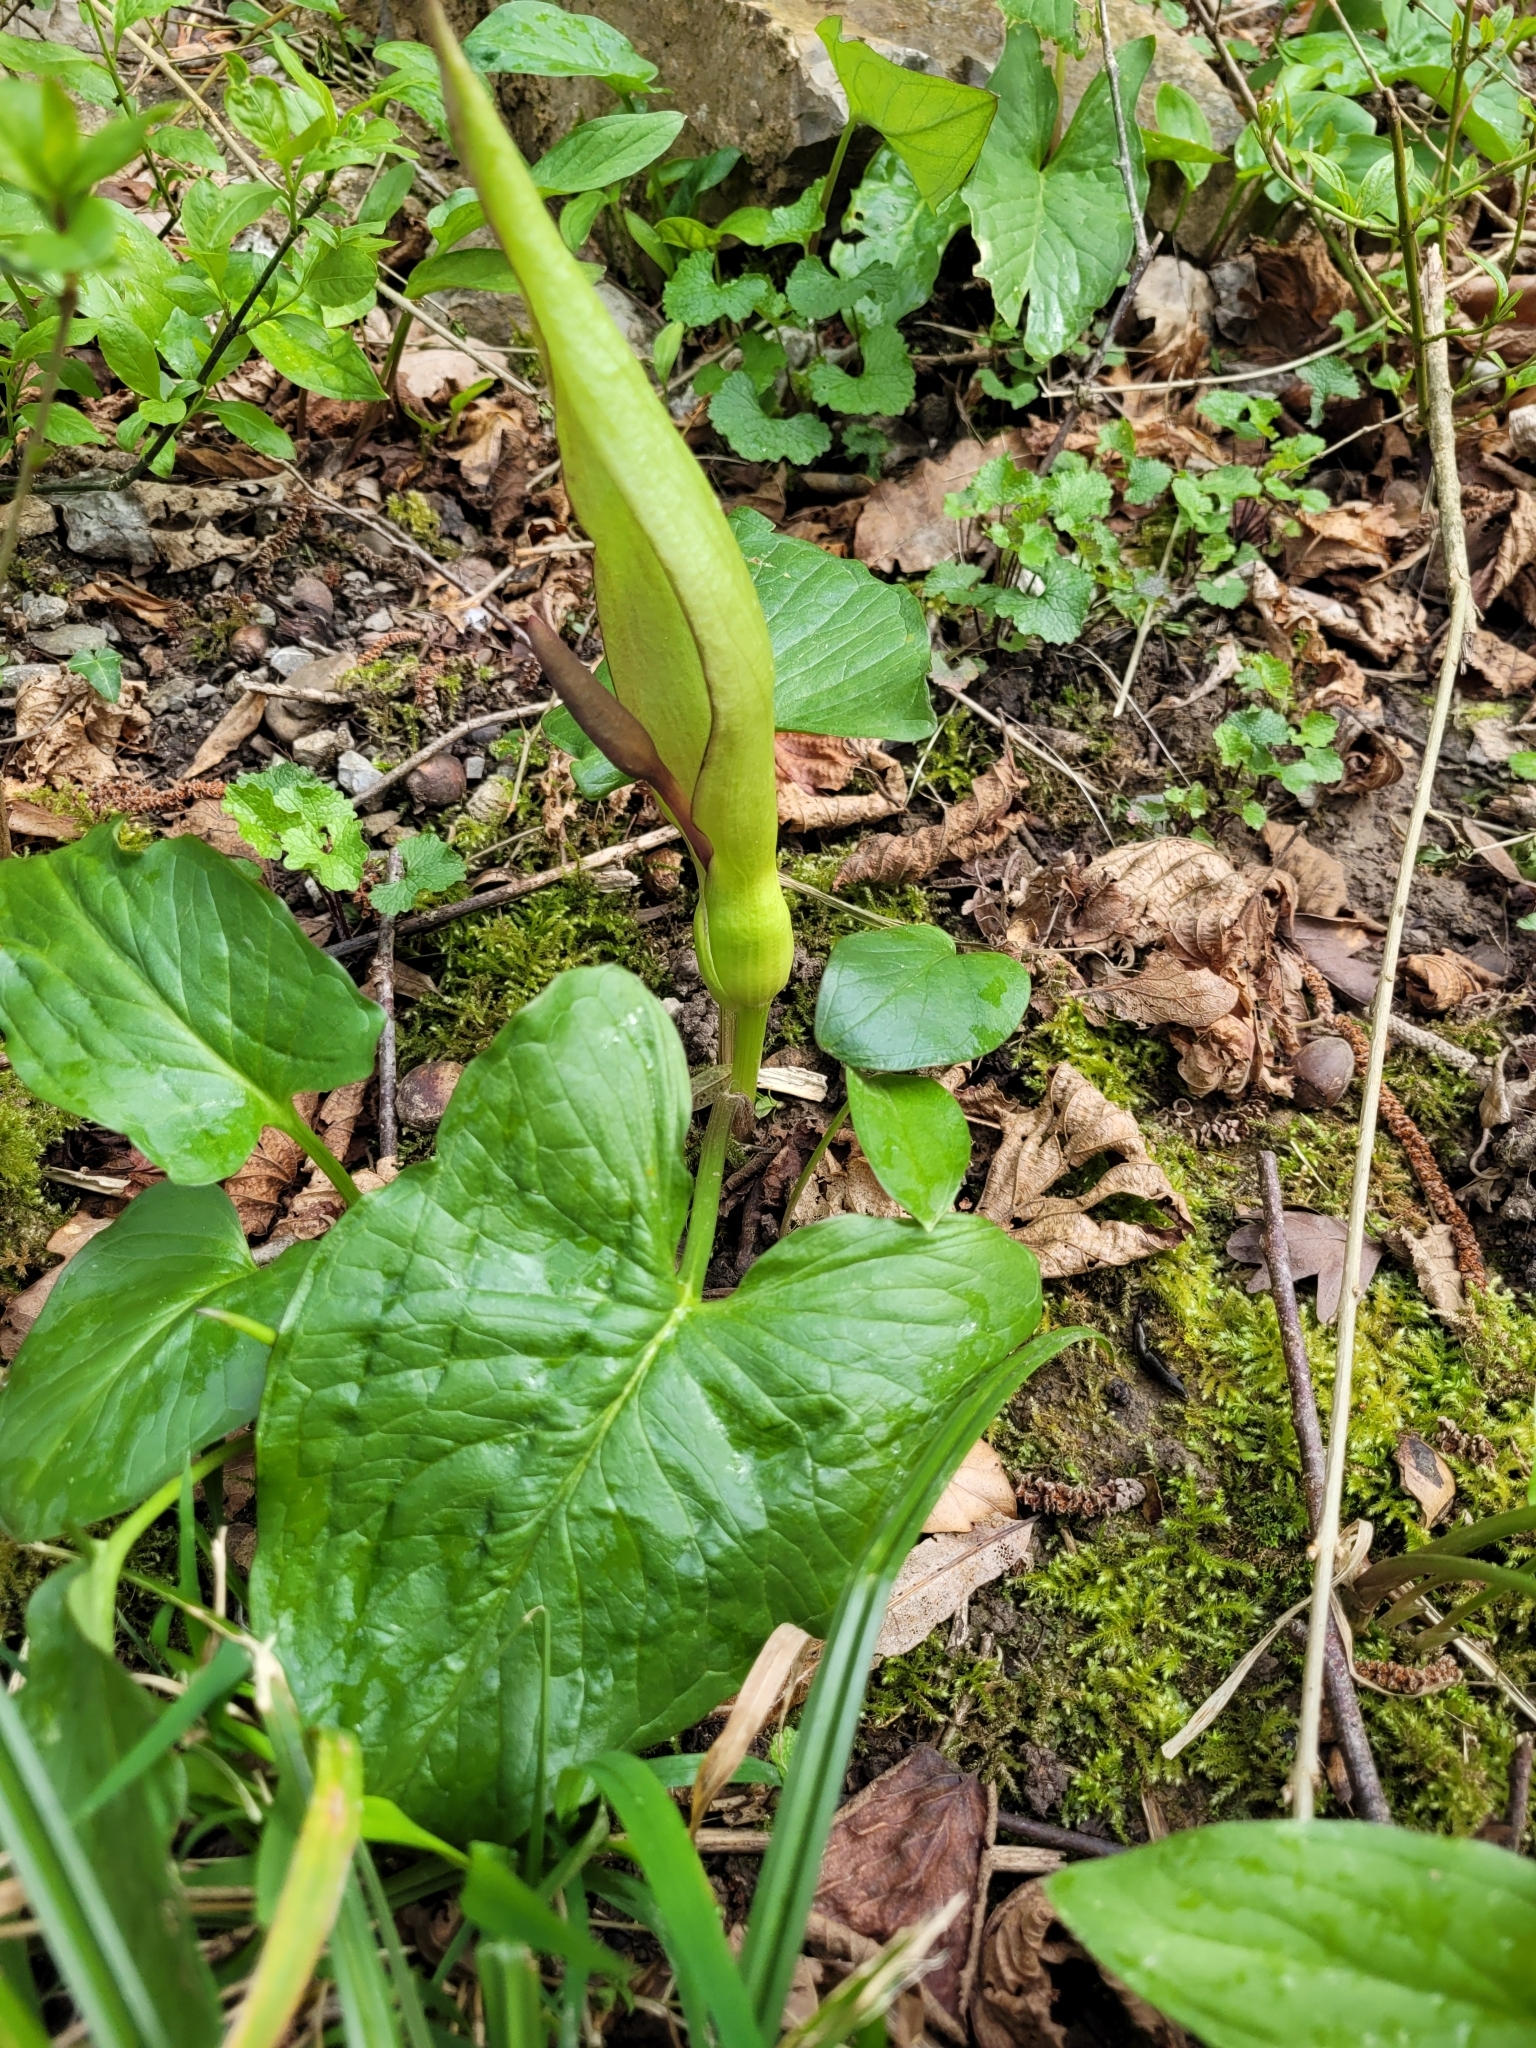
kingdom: Plantae
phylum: Tracheophyta
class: Liliopsida
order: Alismatales
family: Araceae
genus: Arum
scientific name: Arum maculatum
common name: Lords-and-ladies
